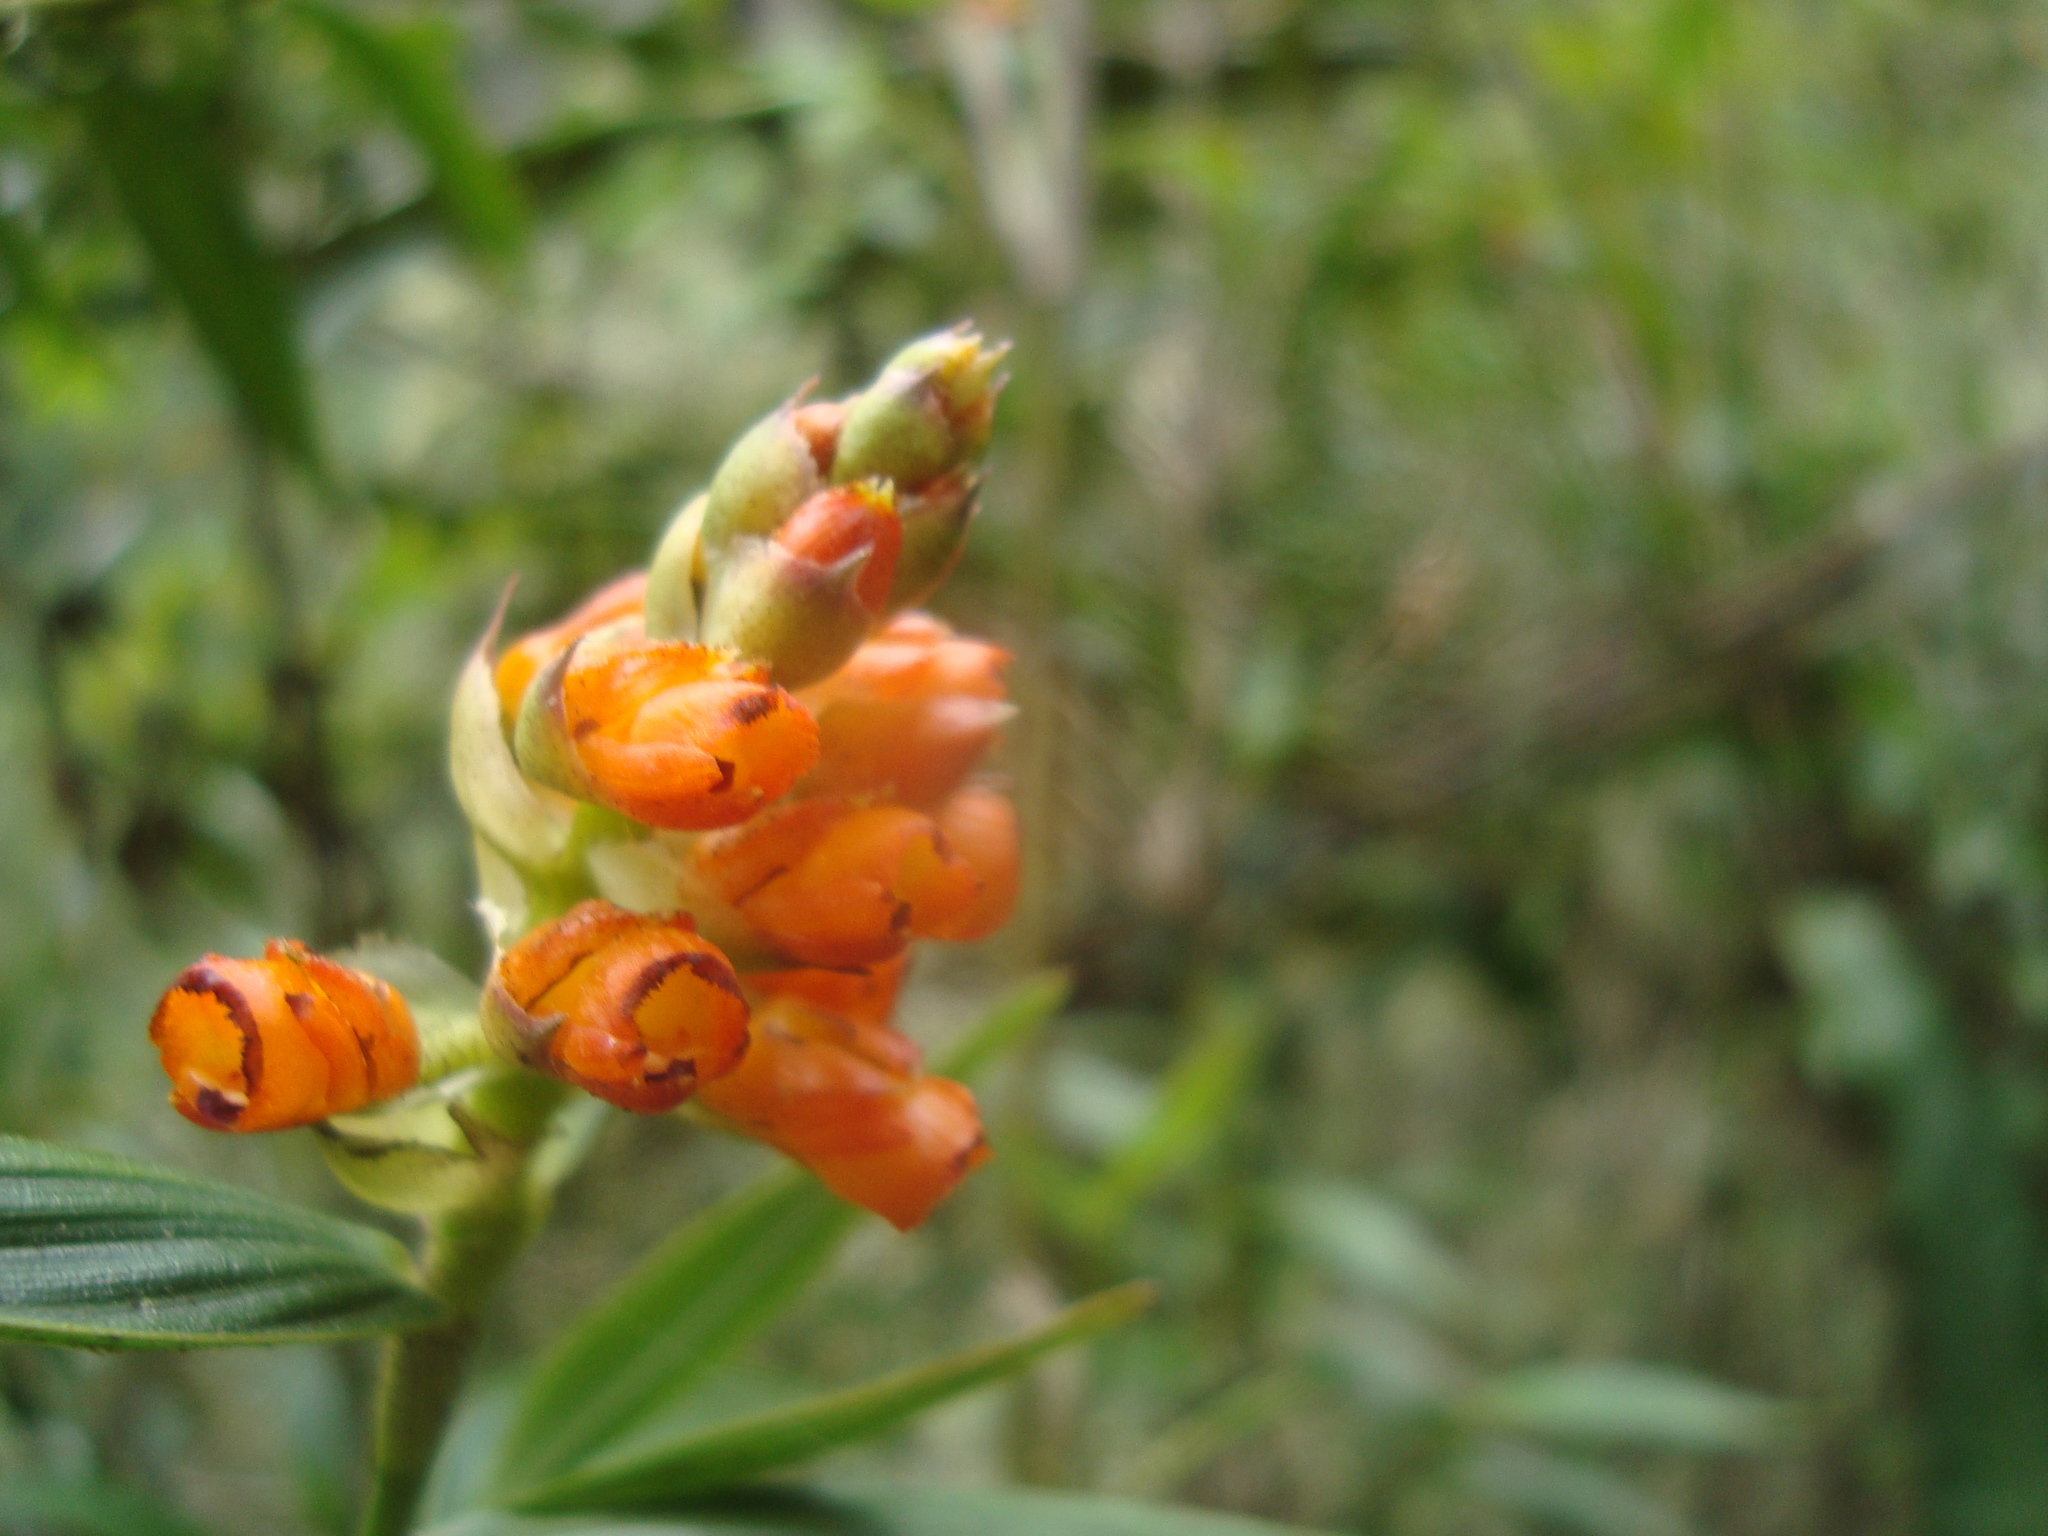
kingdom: Plantae
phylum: Tracheophyta
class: Liliopsida
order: Asparagales
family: Orchidaceae
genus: Elleanthus
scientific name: Elleanthus aurantiacus
